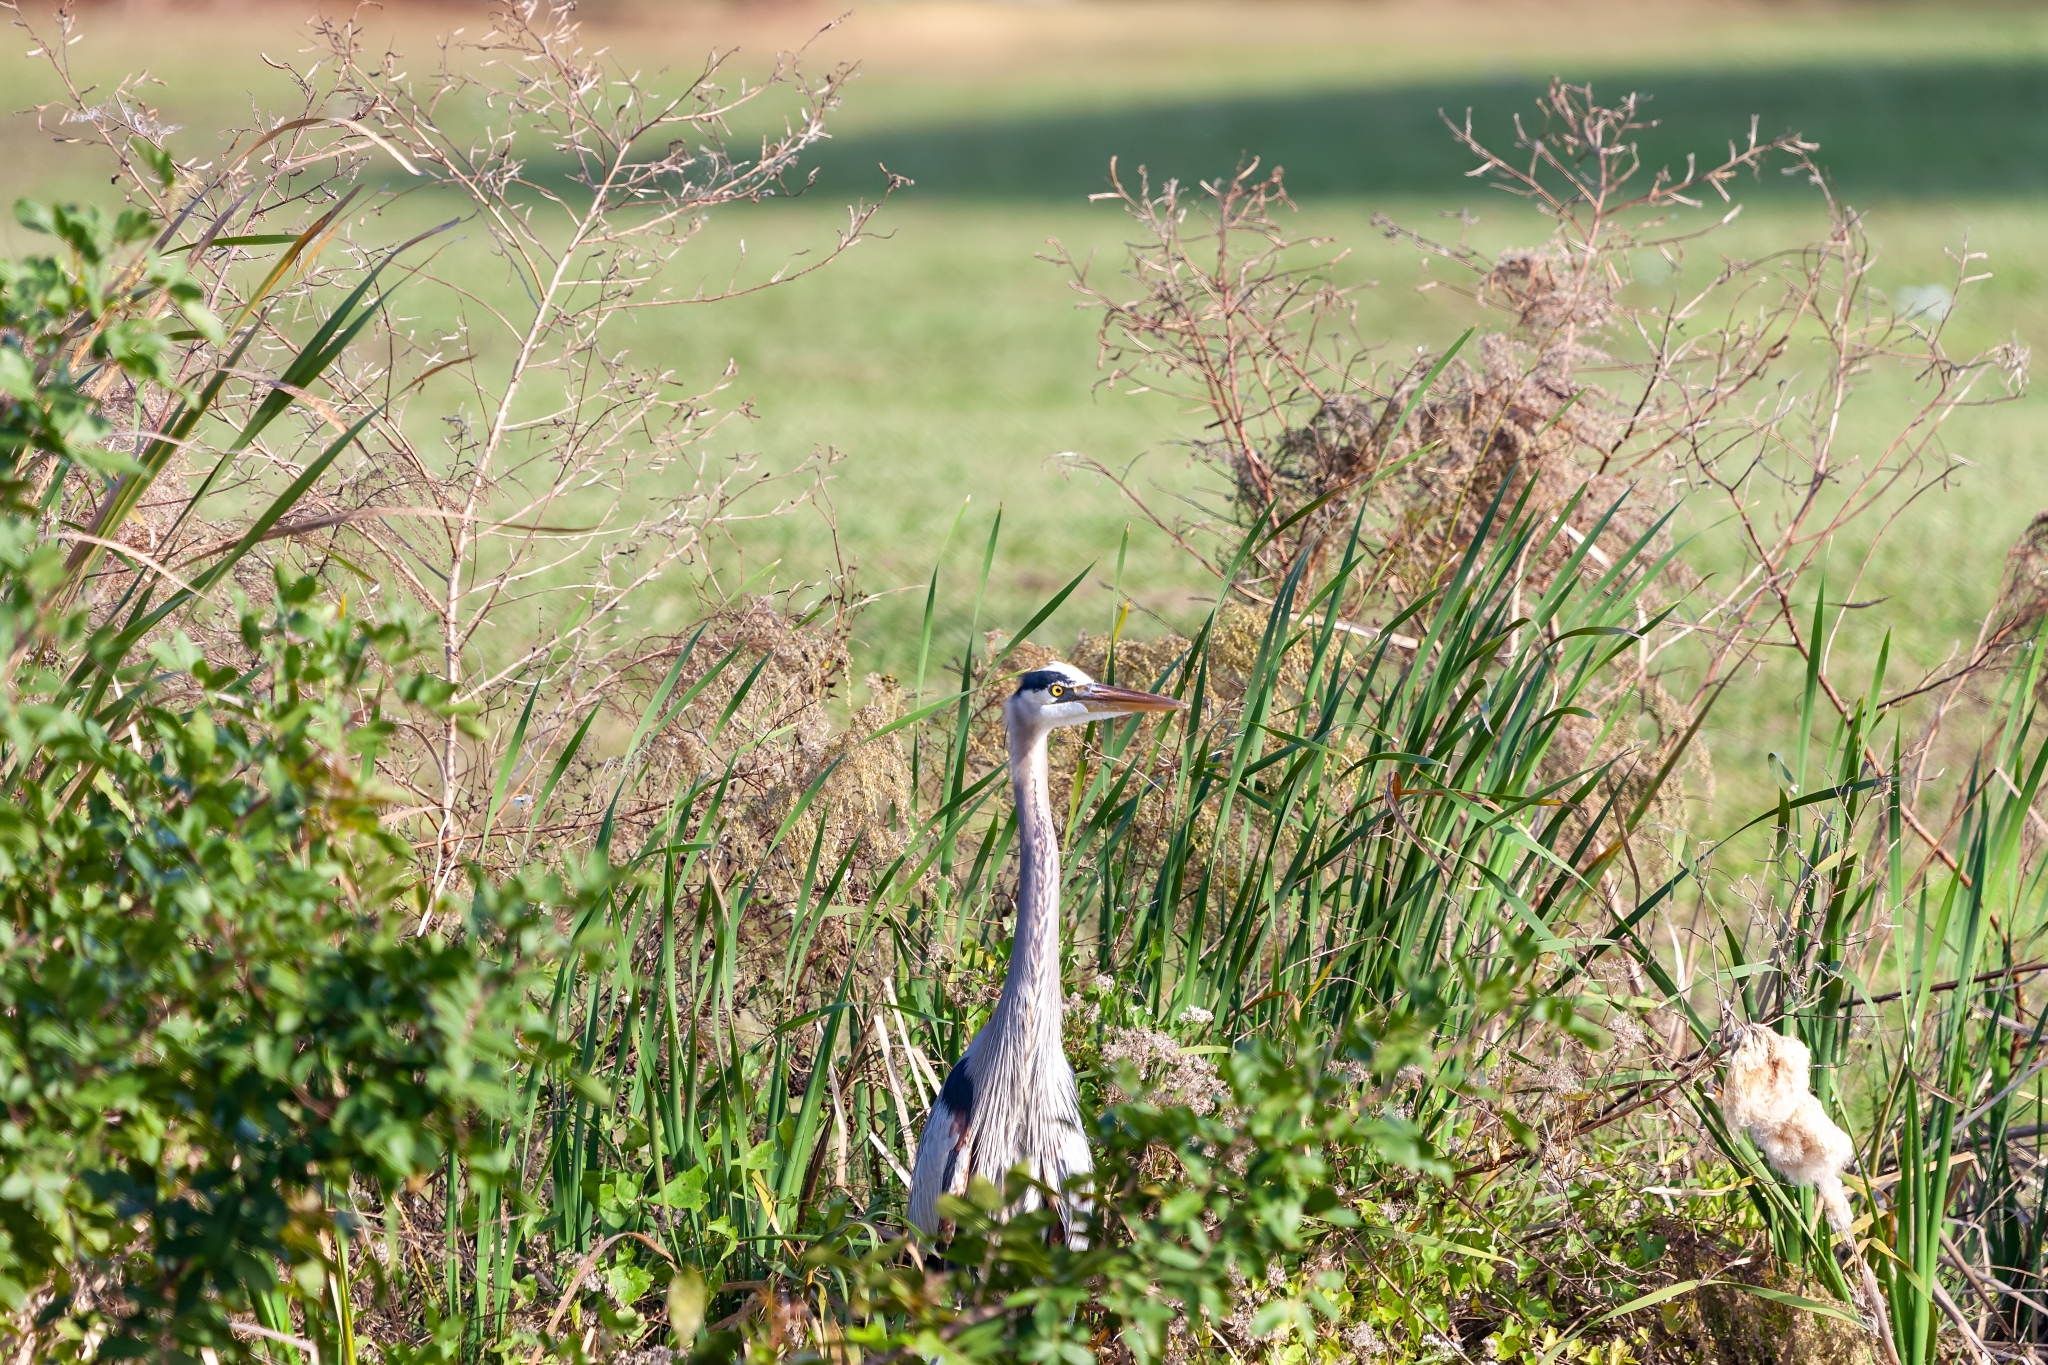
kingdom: Animalia
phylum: Chordata
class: Aves
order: Pelecaniformes
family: Ardeidae
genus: Ardea
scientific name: Ardea herodias
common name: Great blue heron
